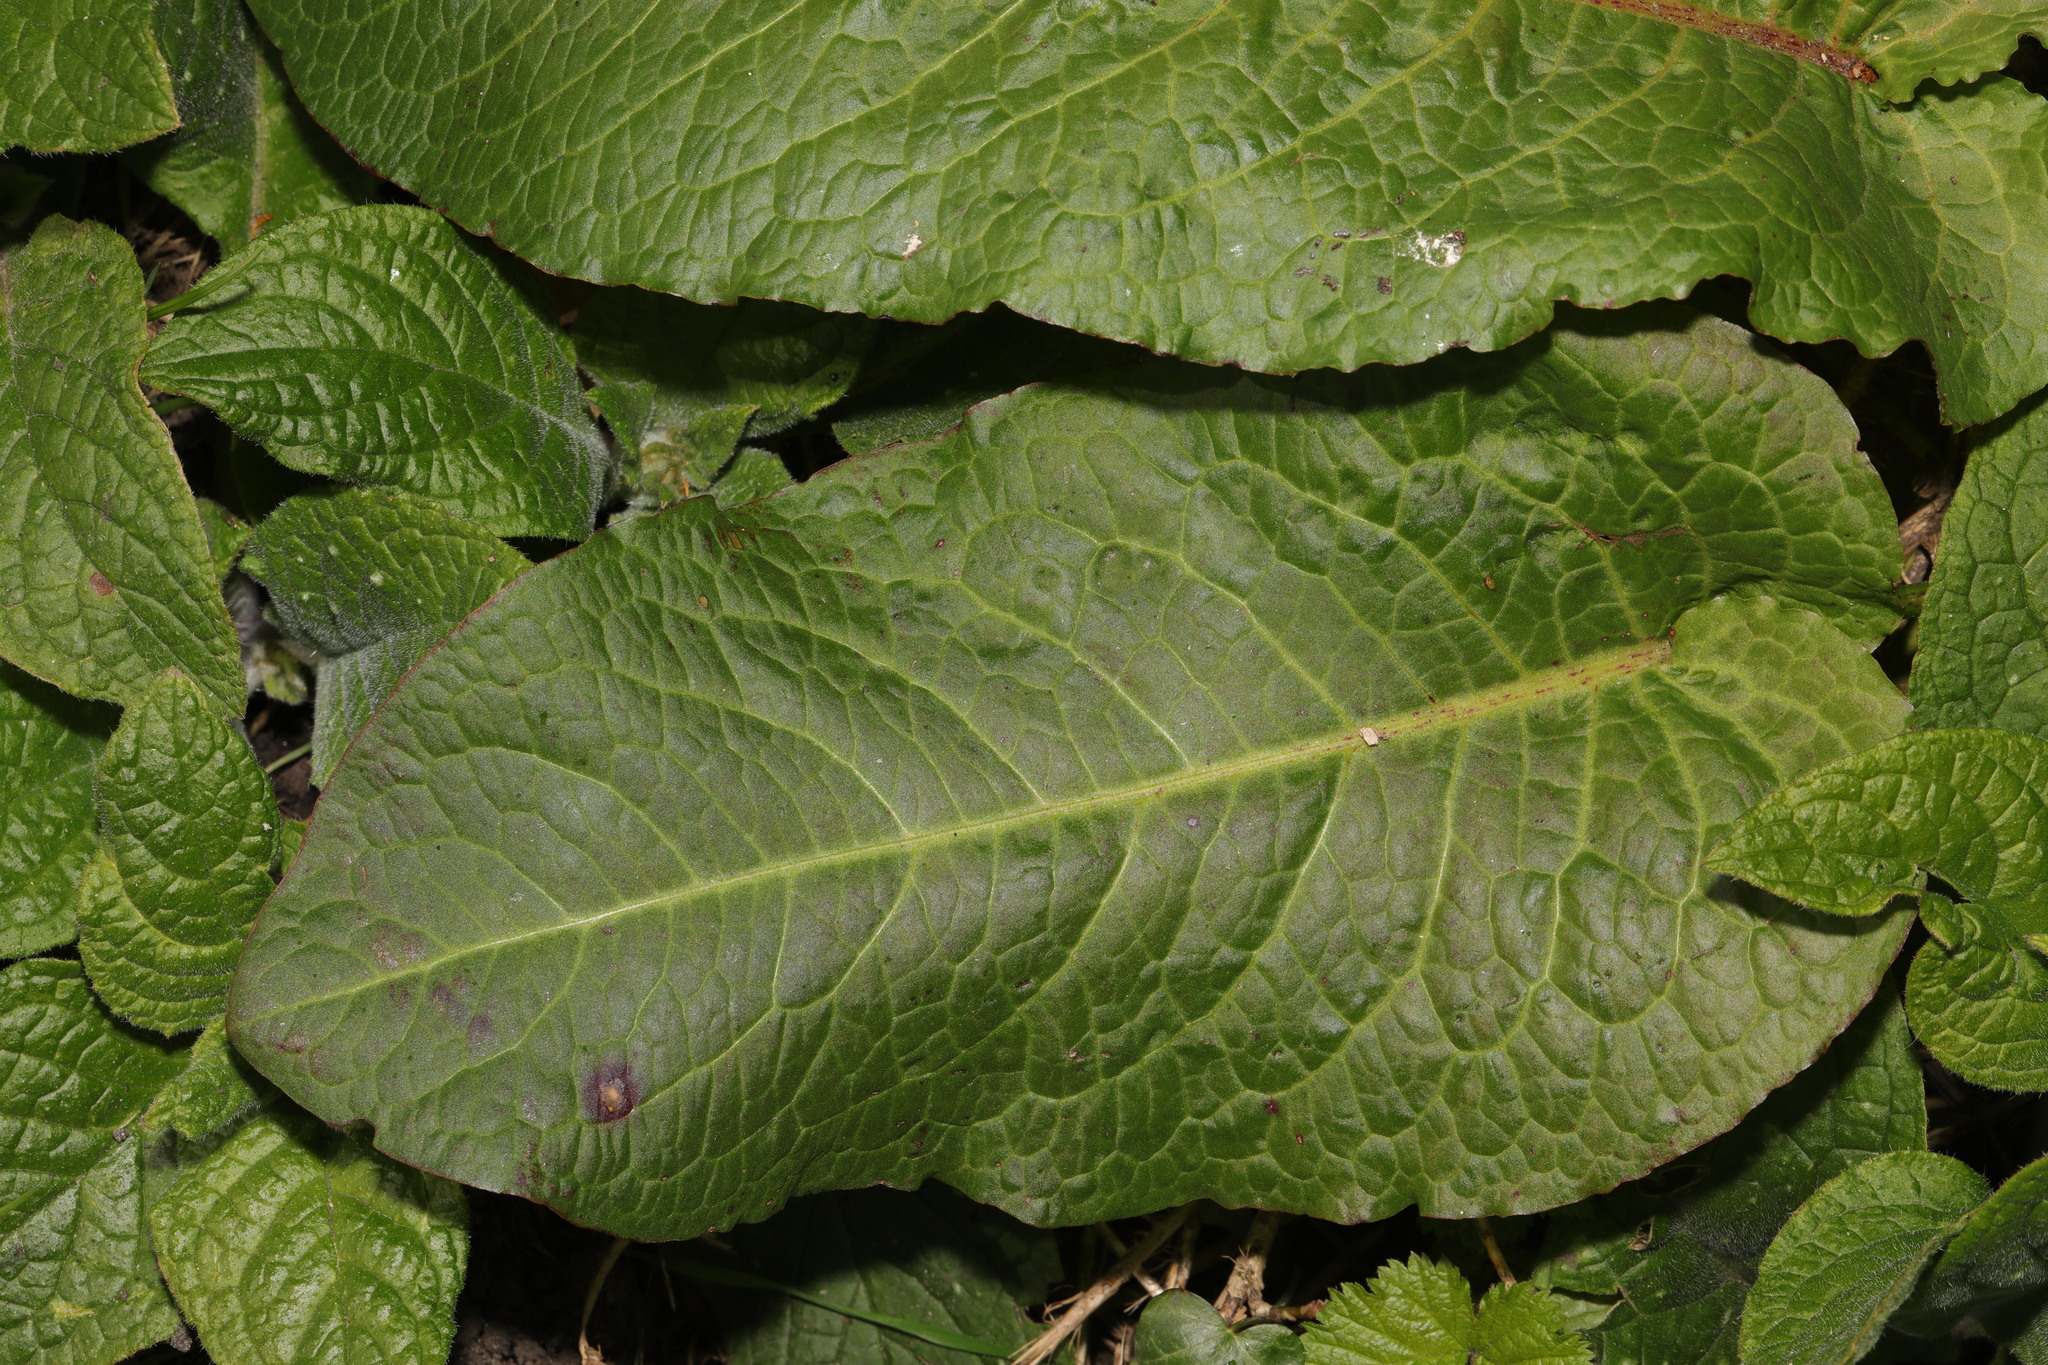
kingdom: Plantae
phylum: Tracheophyta
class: Magnoliopsida
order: Caryophyllales
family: Polygonaceae
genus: Rumex
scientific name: Rumex obtusifolius
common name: Bitter dock
